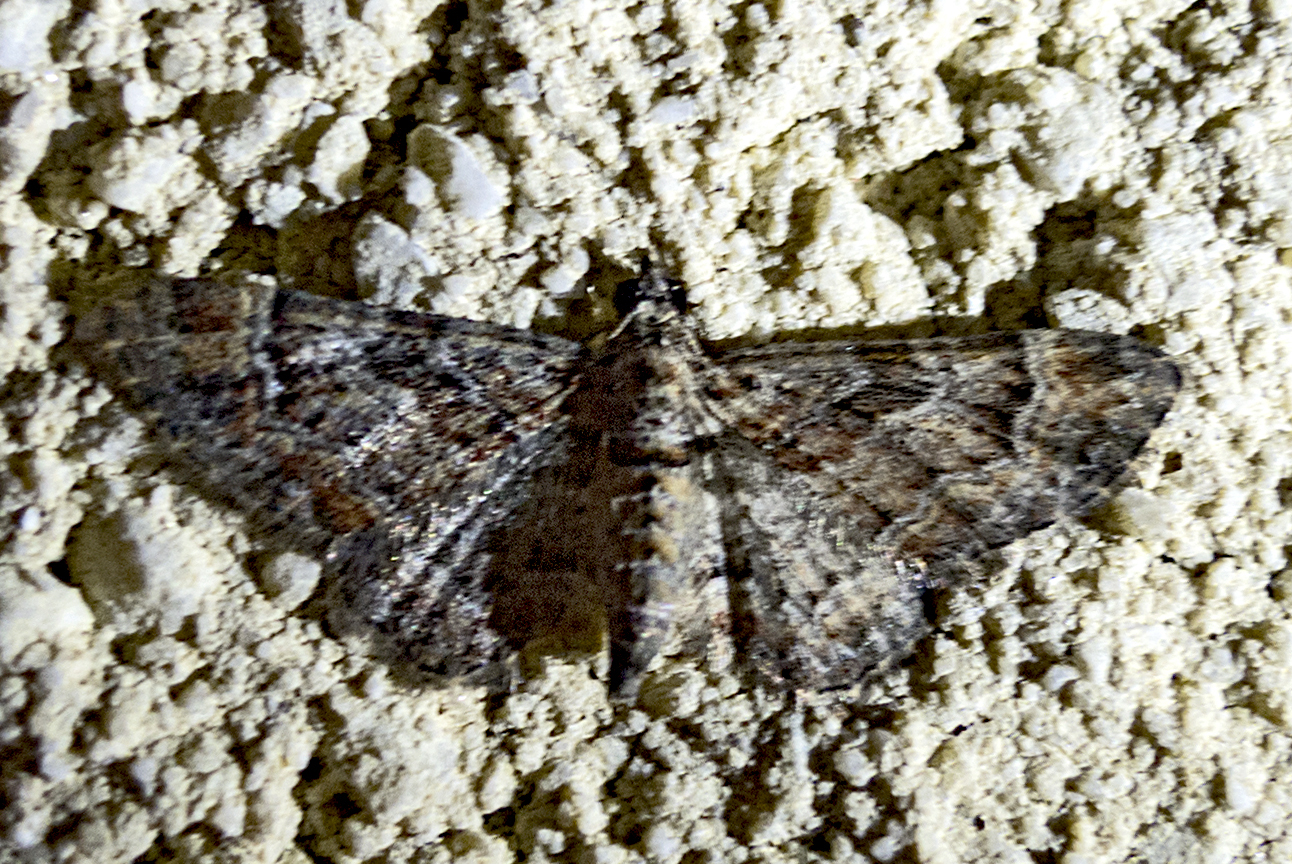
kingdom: Animalia
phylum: Arthropoda
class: Insecta
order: Lepidoptera
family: Geometridae
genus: Gymnoscelis
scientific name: Gymnoscelis rufifasciata
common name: Double-striped pug
